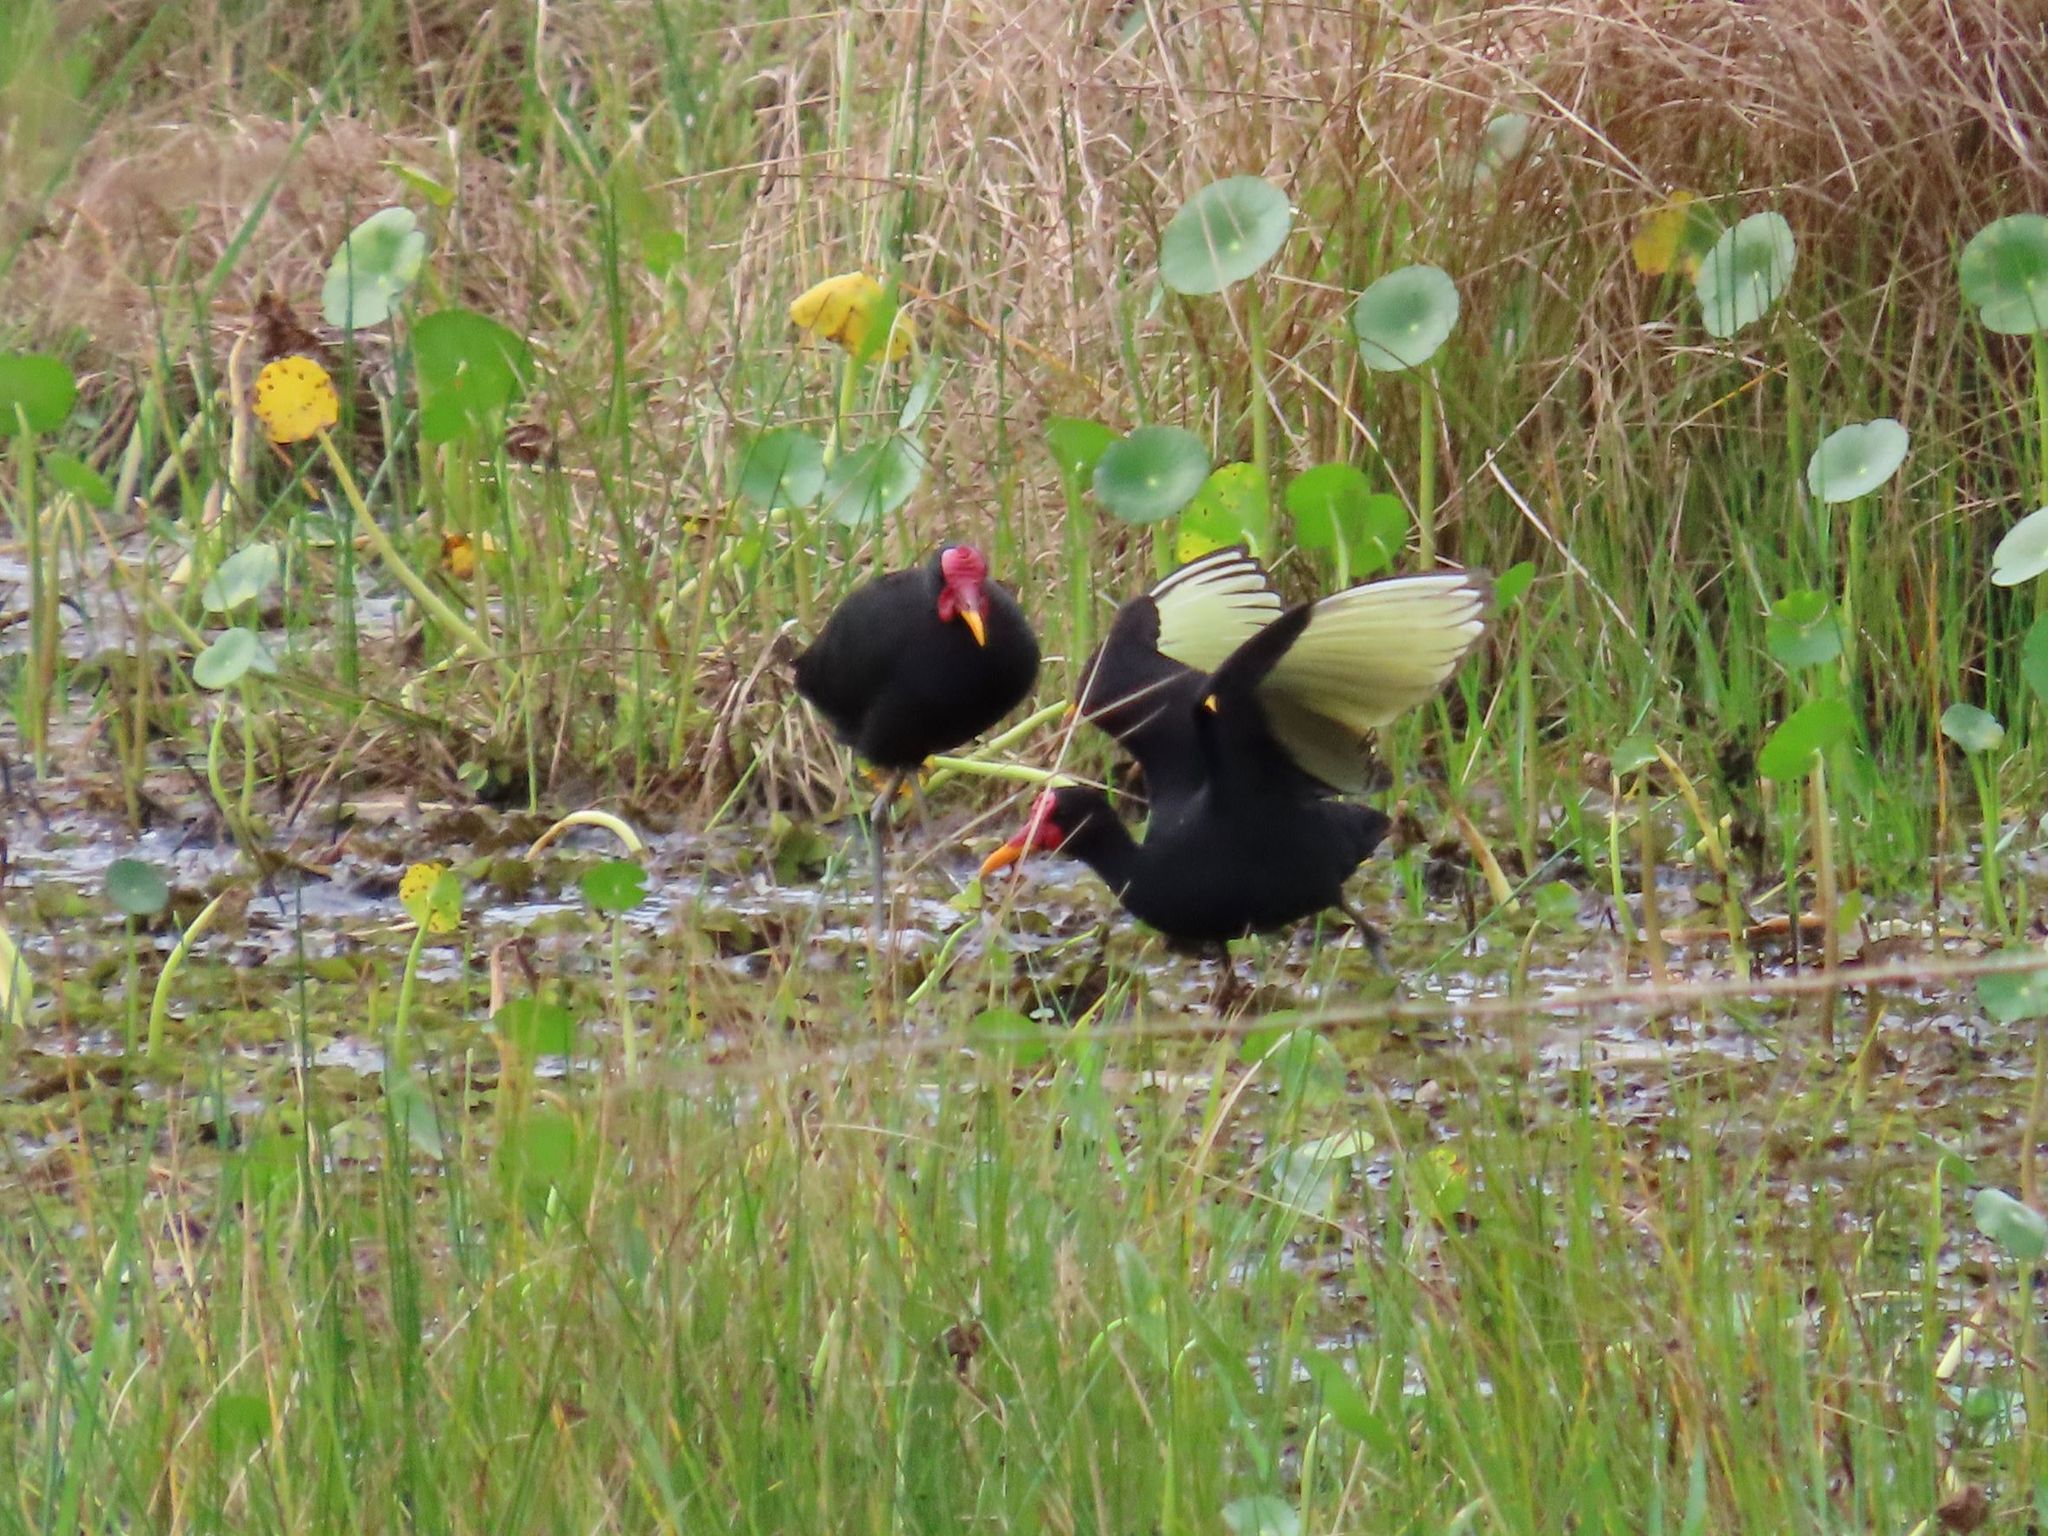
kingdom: Animalia
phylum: Chordata
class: Aves
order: Charadriiformes
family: Jacanidae
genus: Jacana
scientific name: Jacana jacana
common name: Wattled jacana
